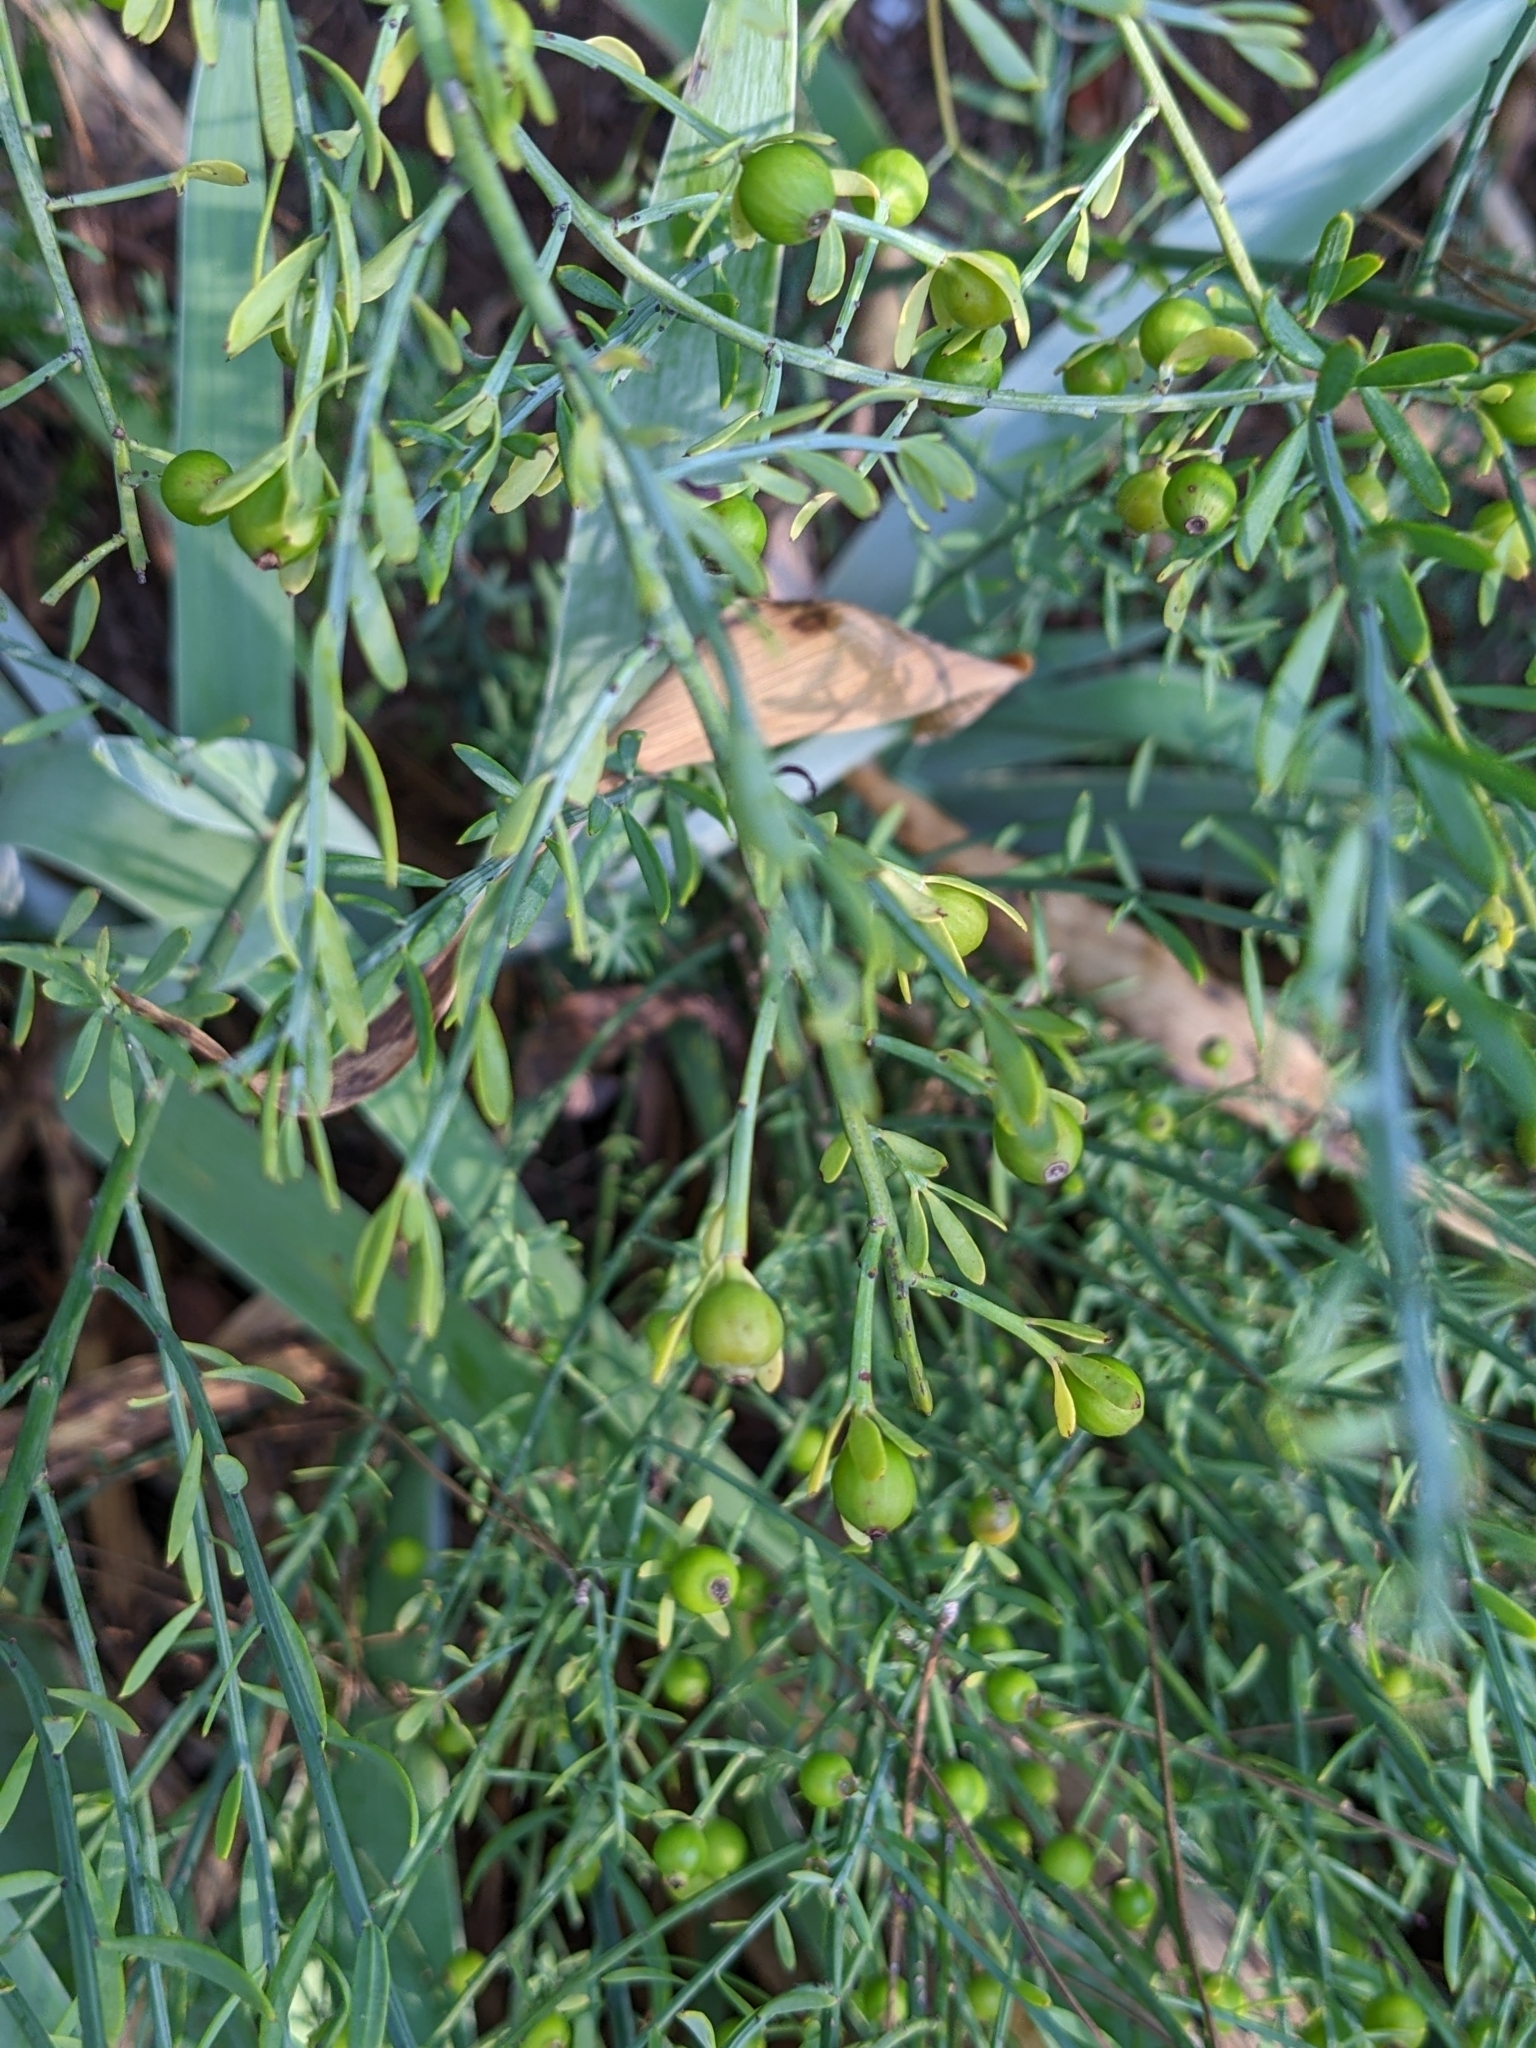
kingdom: Plantae
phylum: Tracheophyta
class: Magnoliopsida
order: Santalales
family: Santalaceae
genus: Osyris
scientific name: Osyris alba
